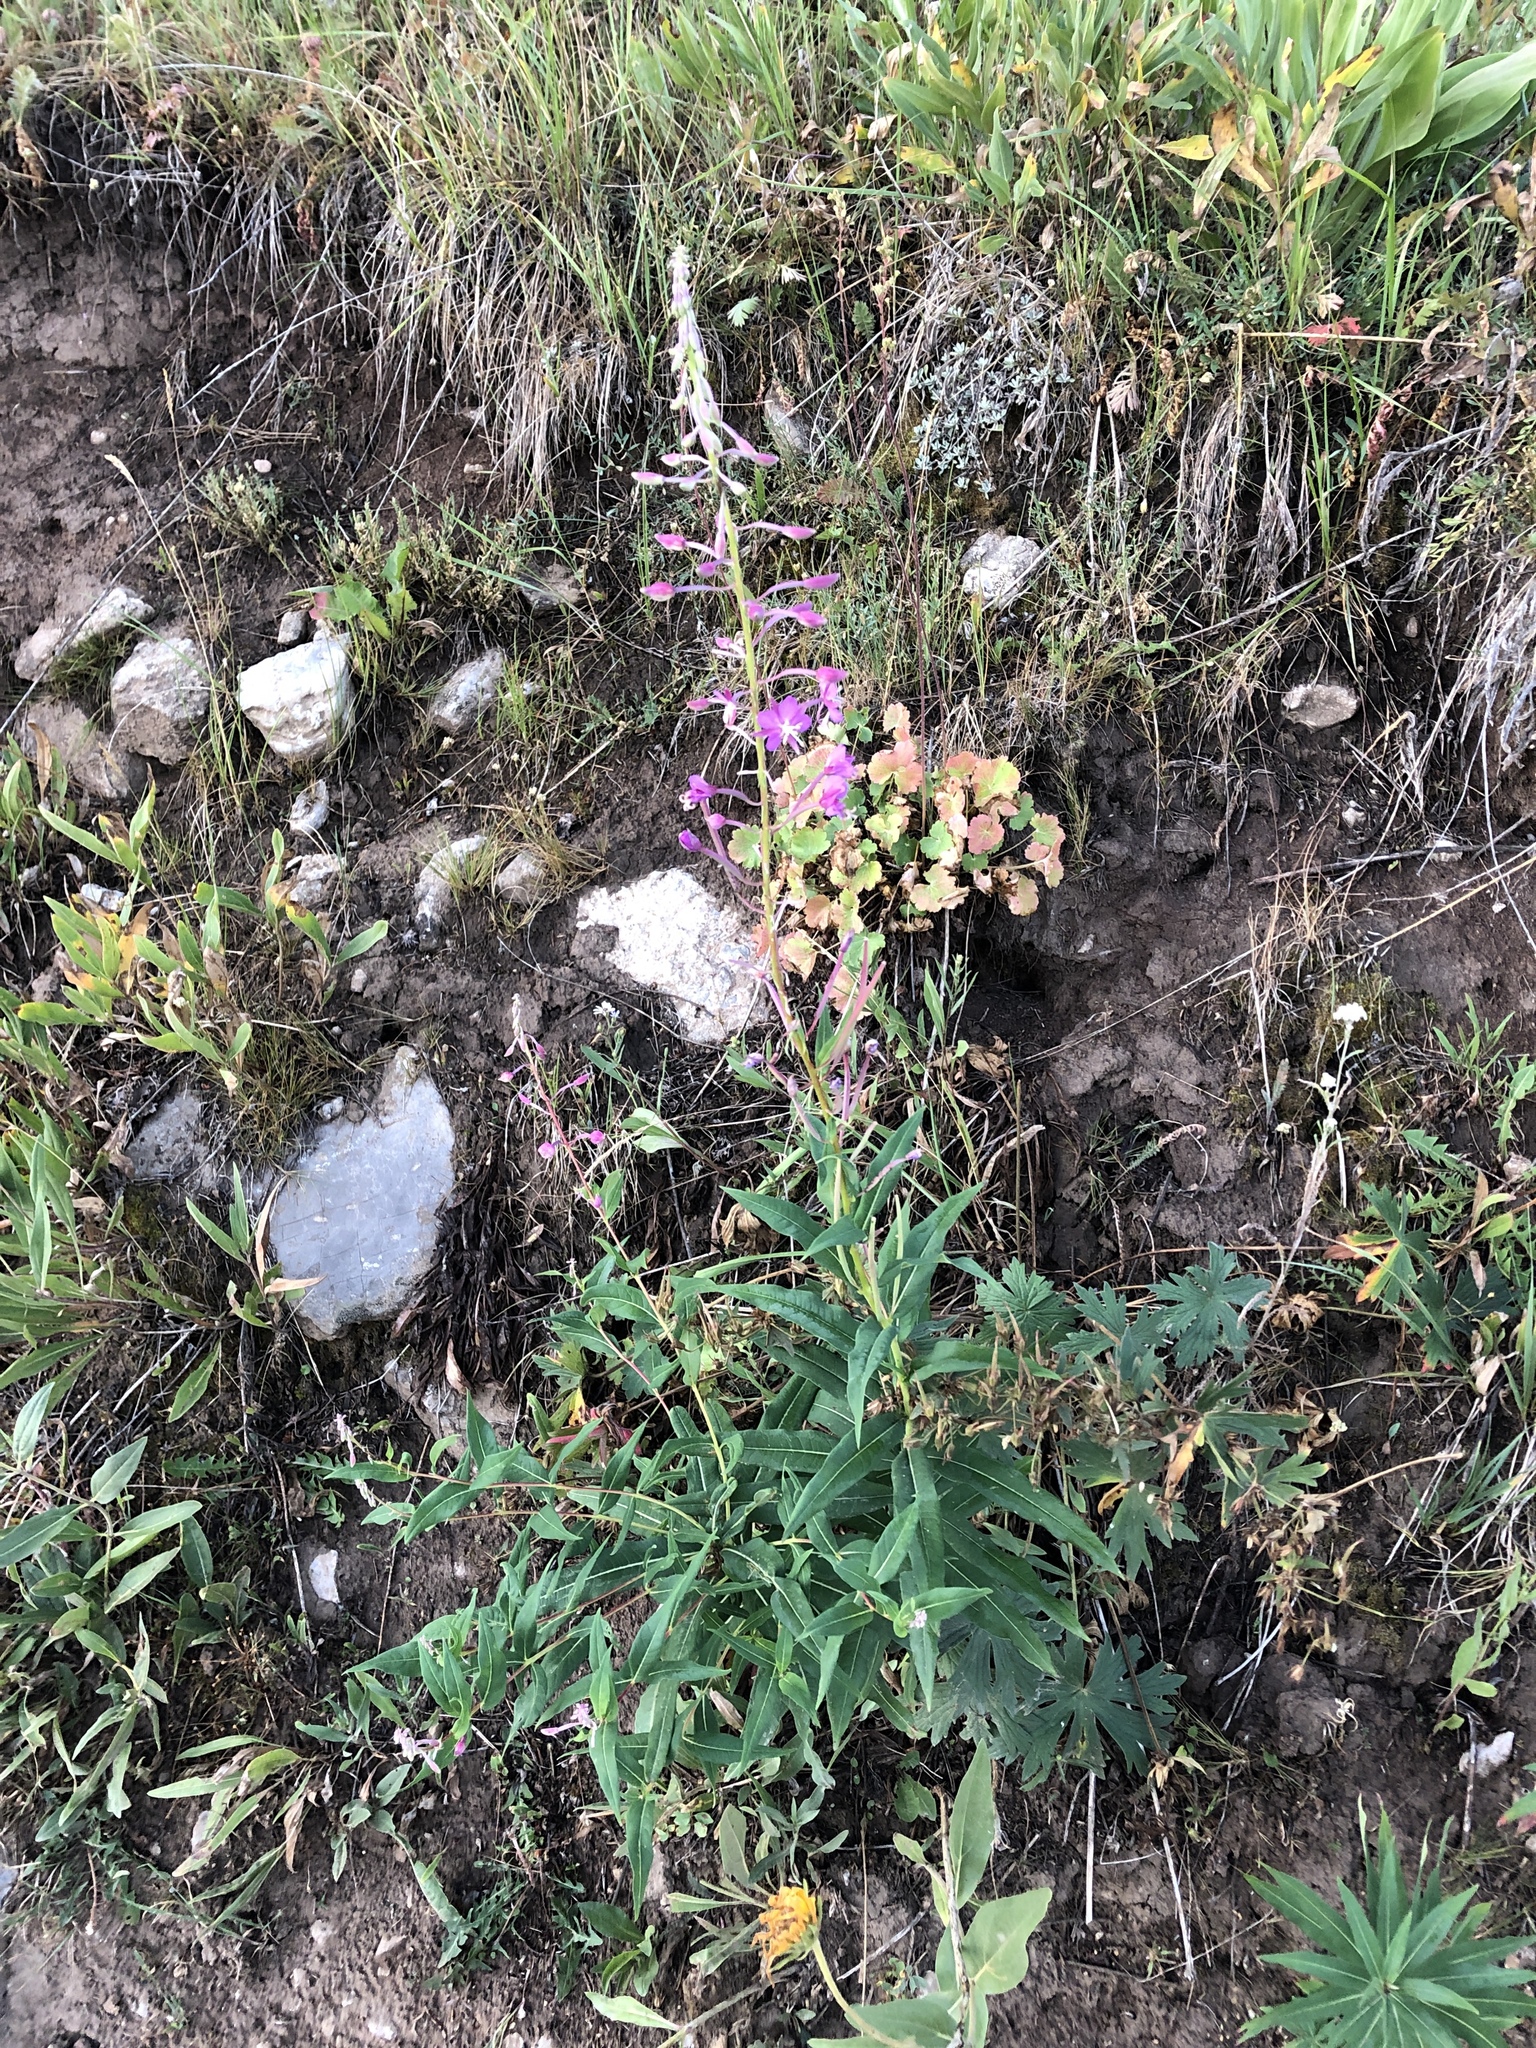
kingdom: Plantae
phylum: Tracheophyta
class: Magnoliopsida
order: Myrtales
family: Onagraceae
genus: Chamaenerion
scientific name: Chamaenerion angustifolium
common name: Fireweed
